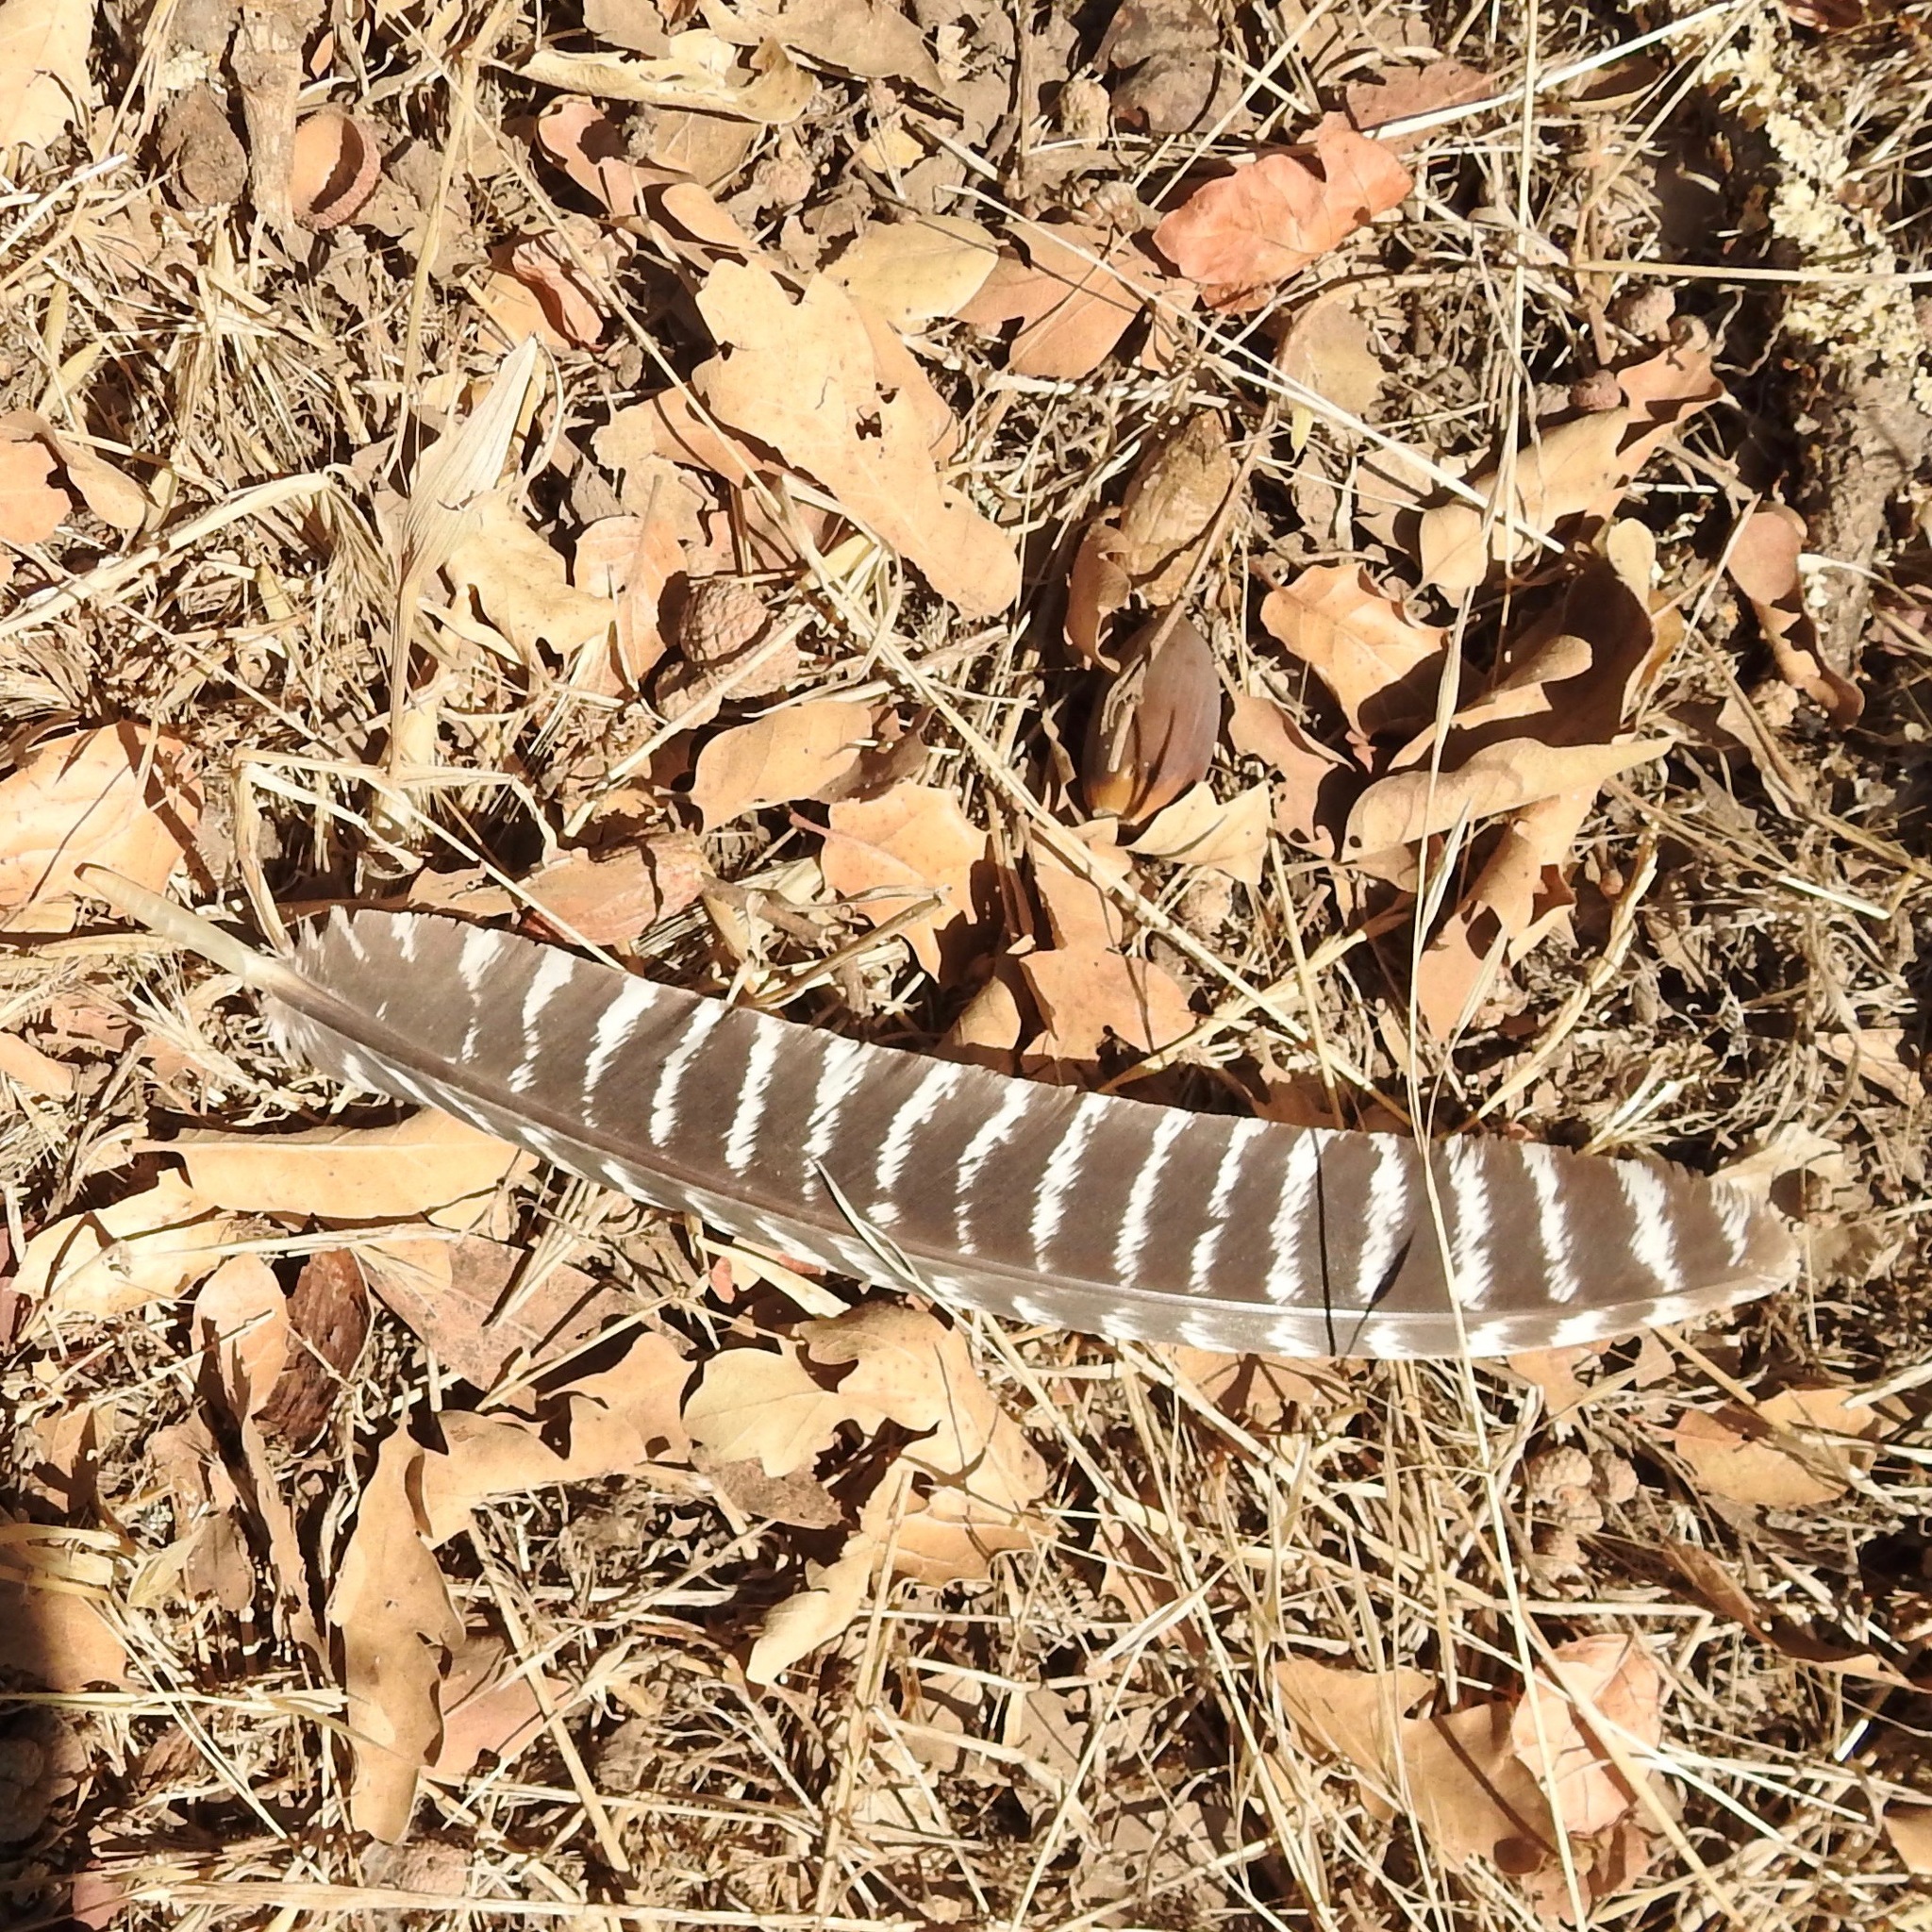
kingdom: Animalia
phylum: Chordata
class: Aves
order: Galliformes
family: Phasianidae
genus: Meleagris
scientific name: Meleagris gallopavo
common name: Wild turkey
